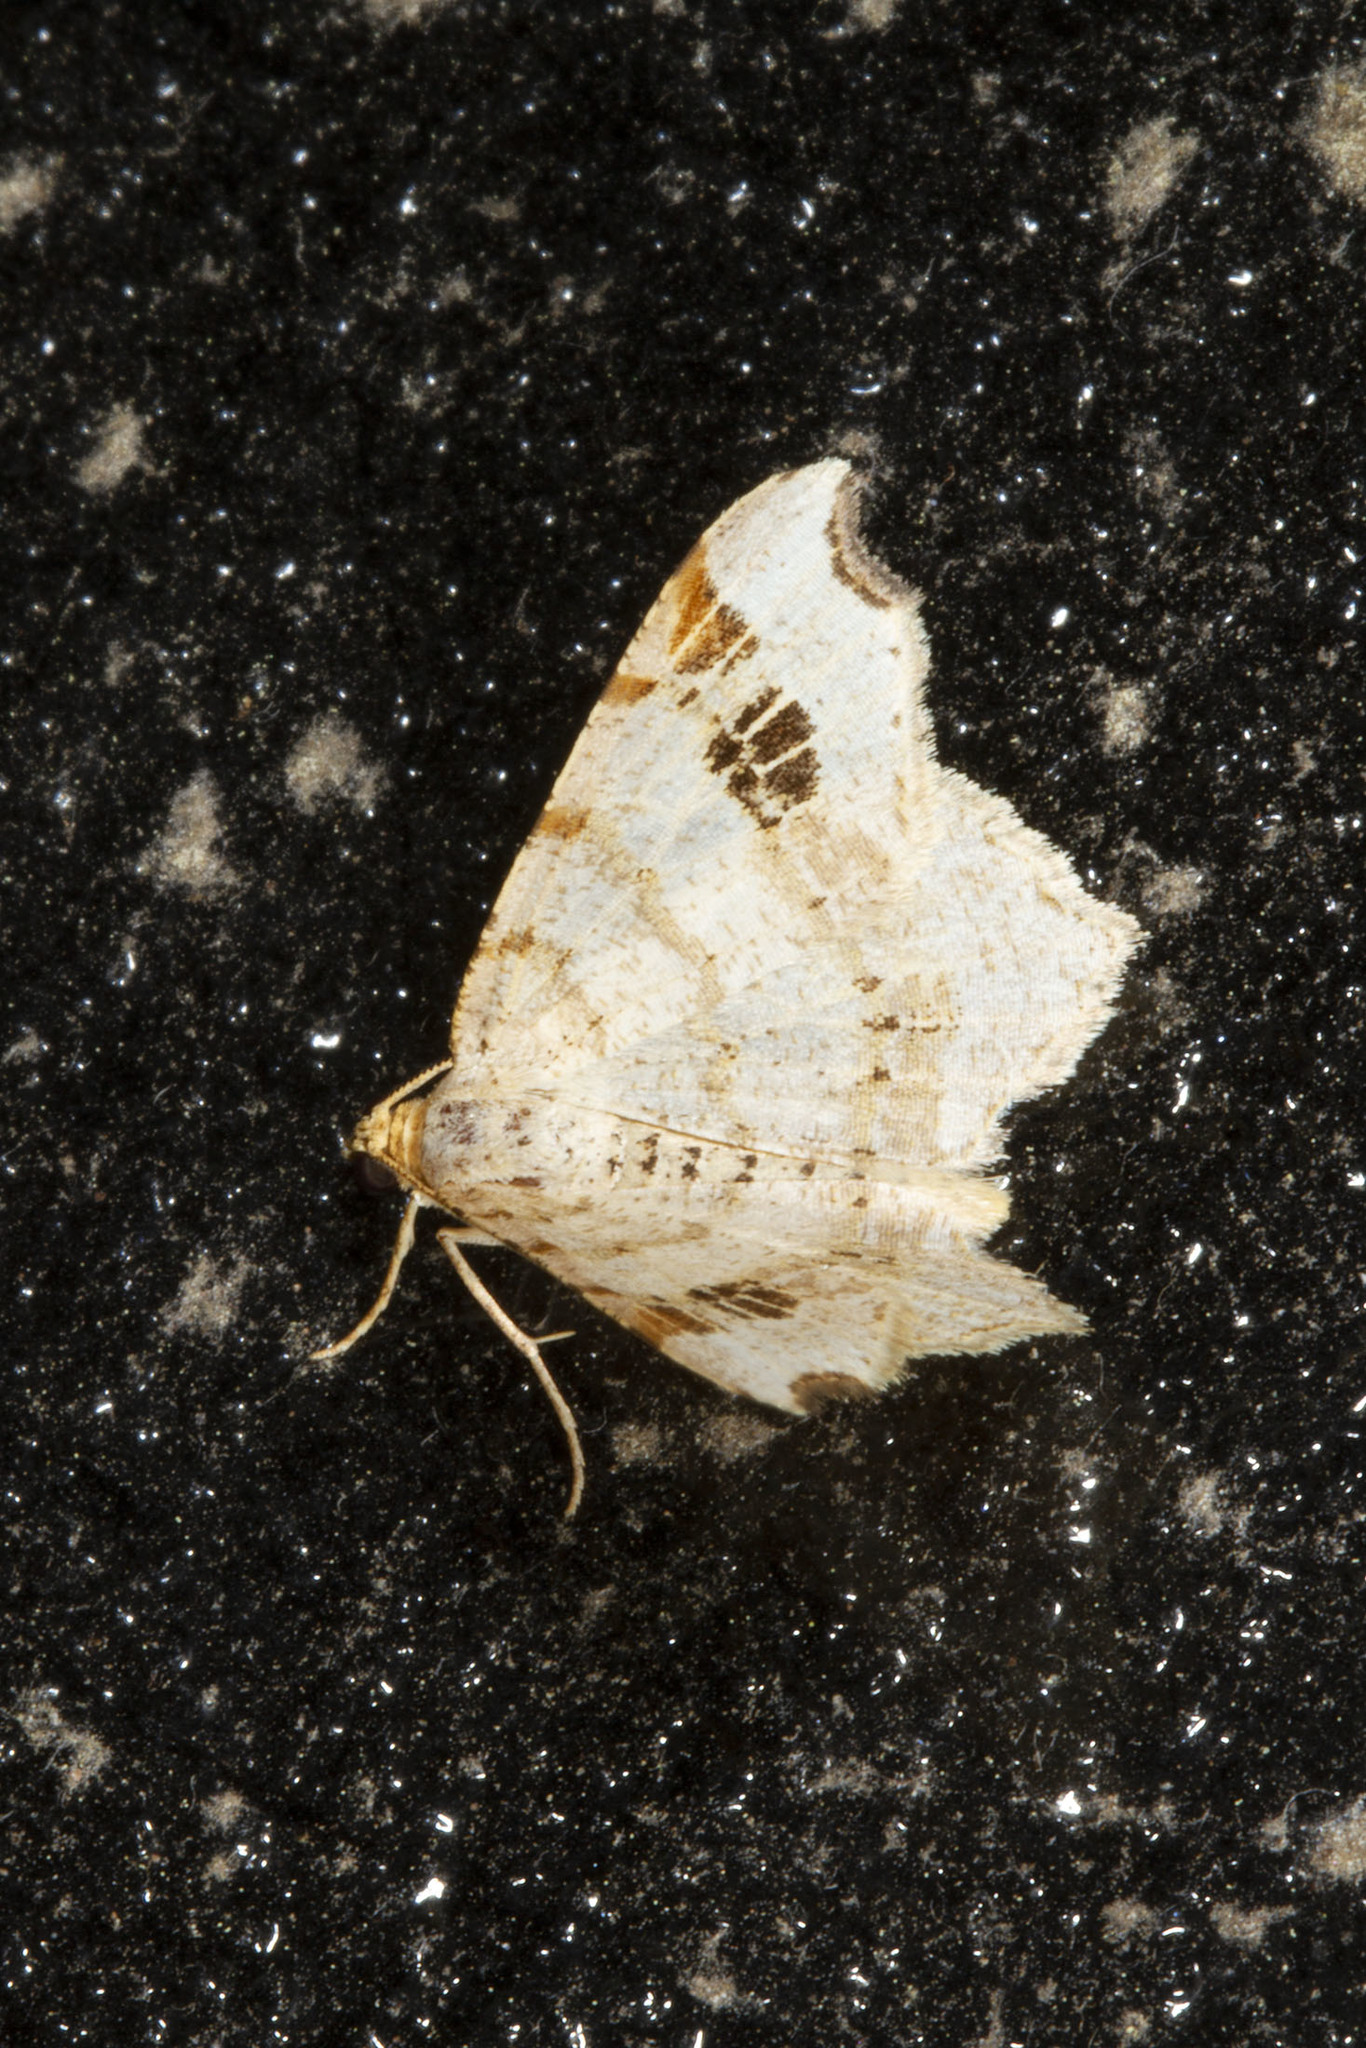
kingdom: Animalia
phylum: Arthropoda
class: Insecta
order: Lepidoptera
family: Geometridae
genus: Macaria
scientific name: Macaria aemulataria
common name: Common angle
